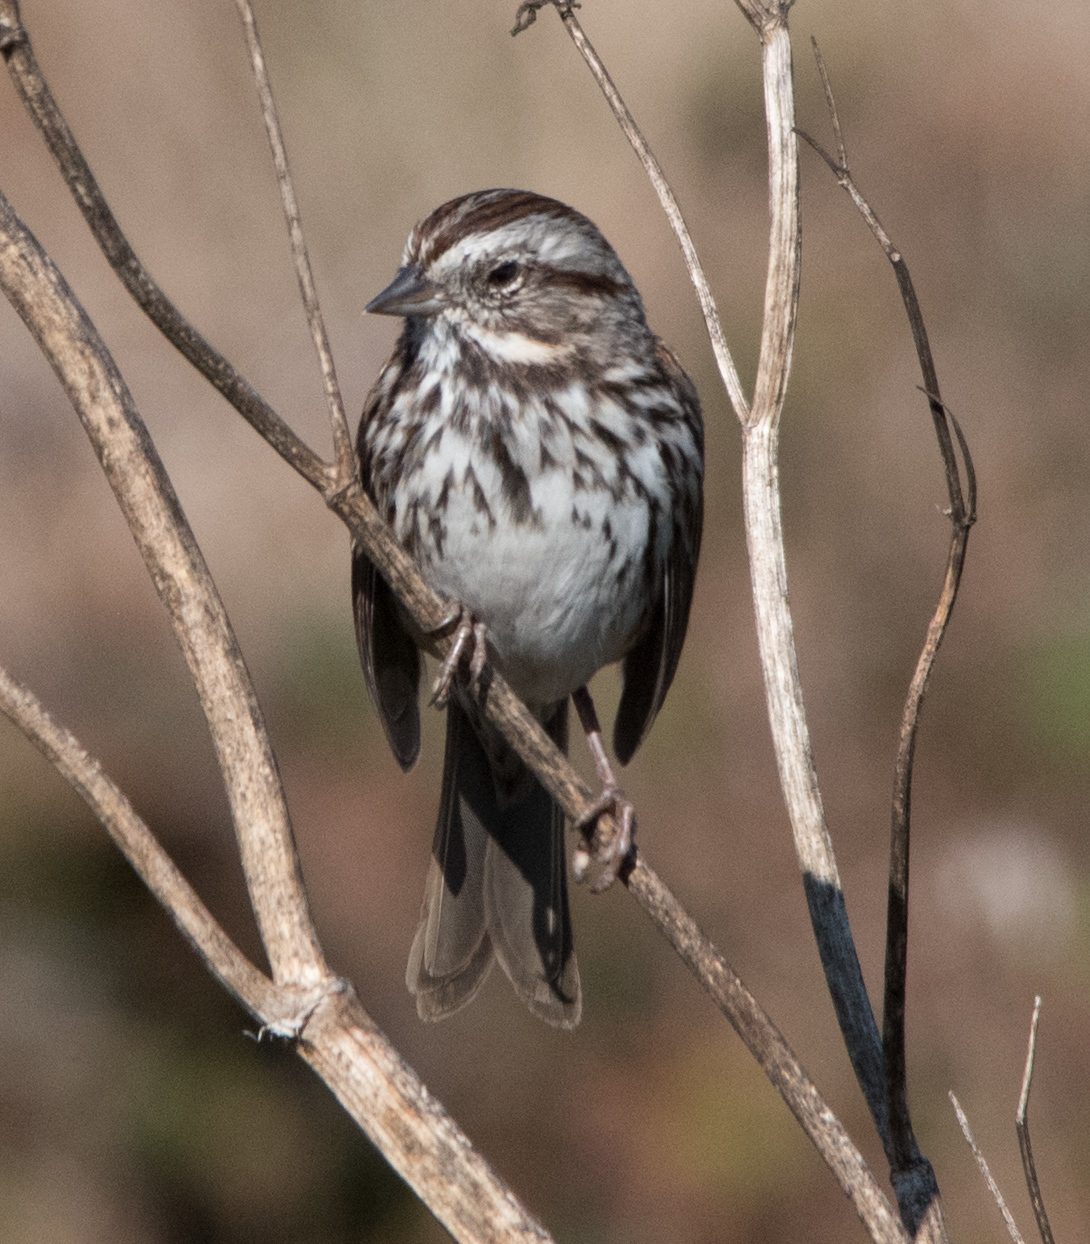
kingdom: Animalia
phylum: Chordata
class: Aves
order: Passeriformes
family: Passerellidae
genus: Melospiza
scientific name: Melospiza melodia
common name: Song sparrow
